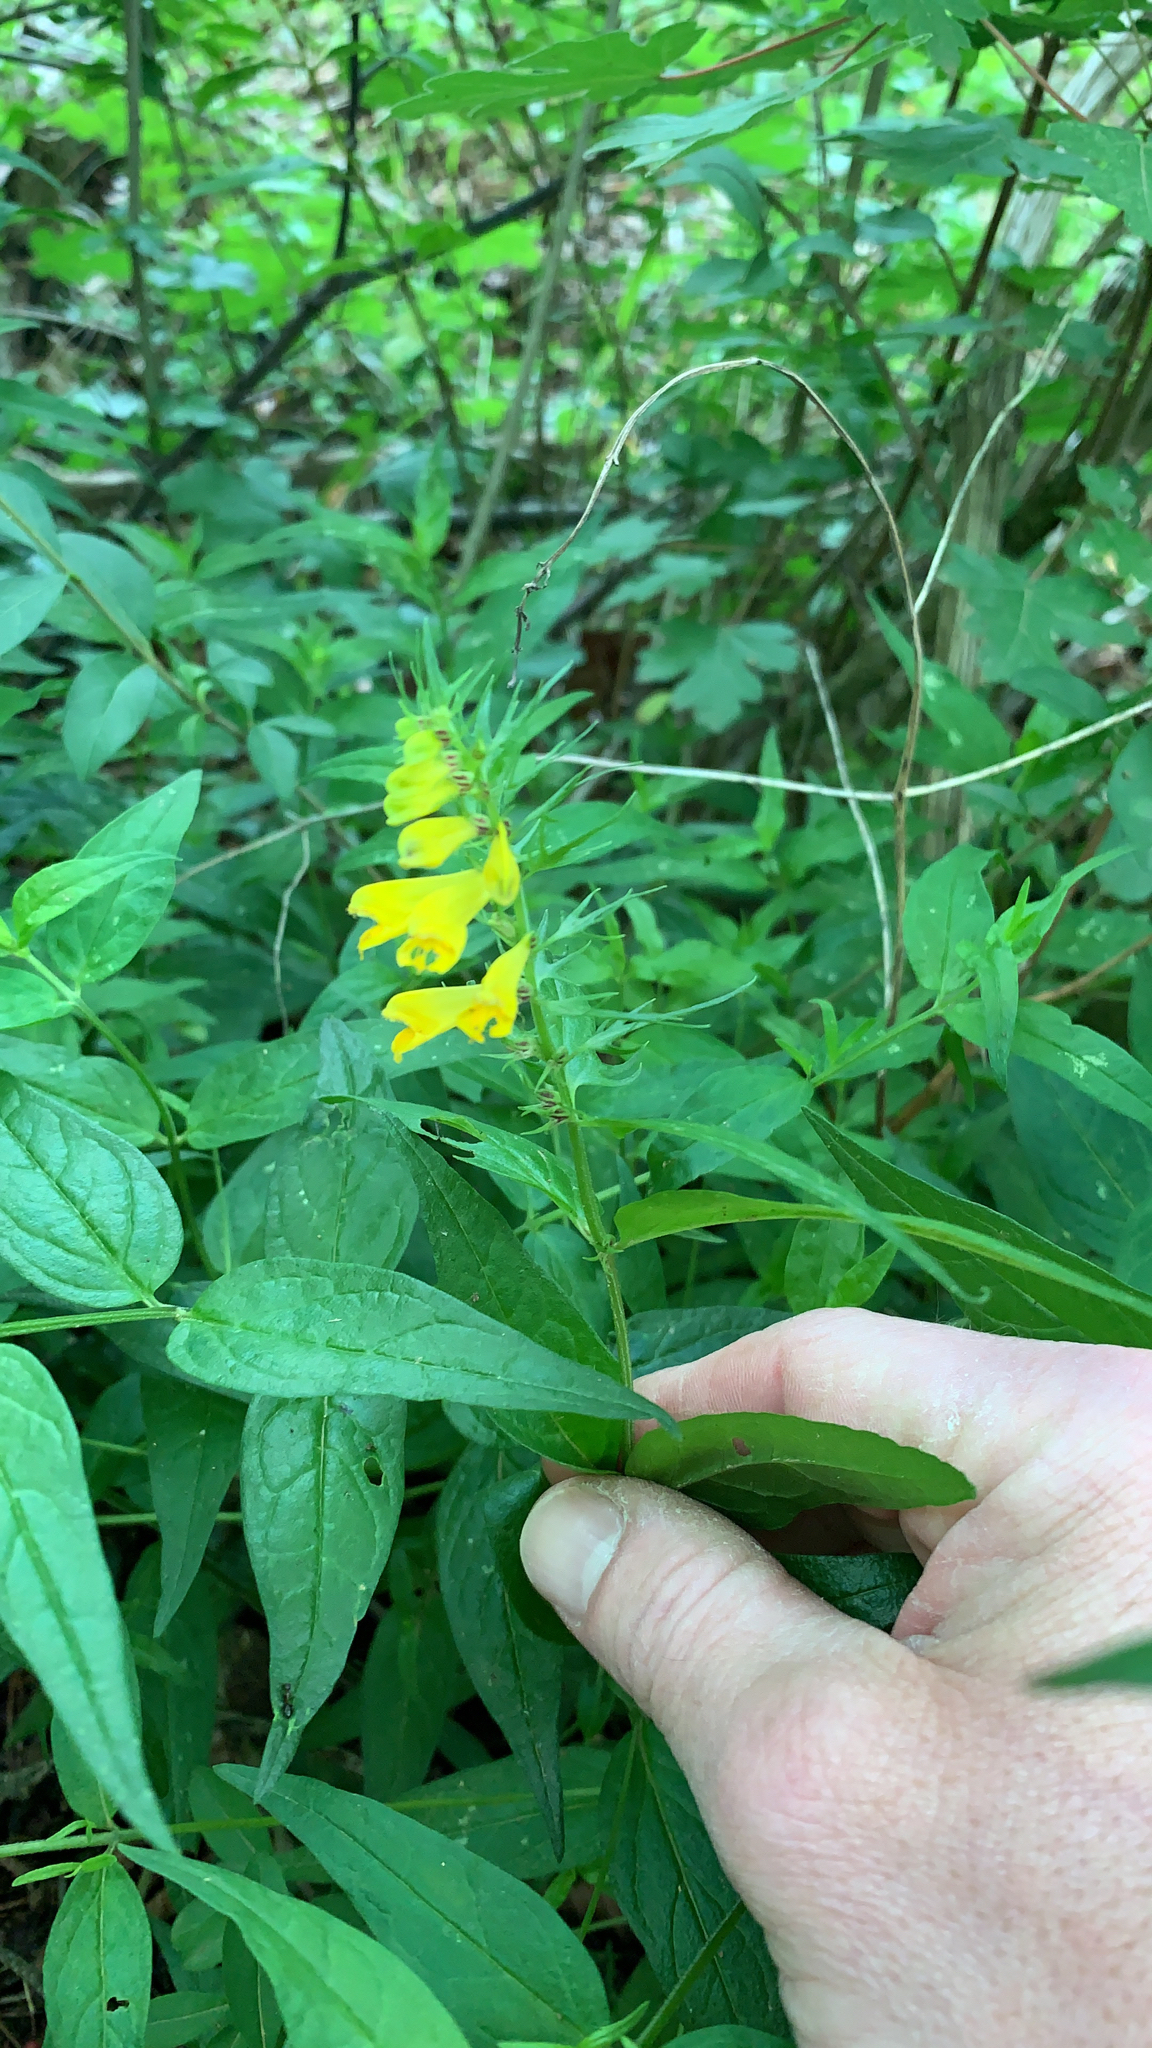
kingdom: Plantae
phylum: Tracheophyta
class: Magnoliopsida
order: Lamiales
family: Orobanchaceae
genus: Melampyrum
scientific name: Melampyrum pratense
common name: Common cow-wheat
